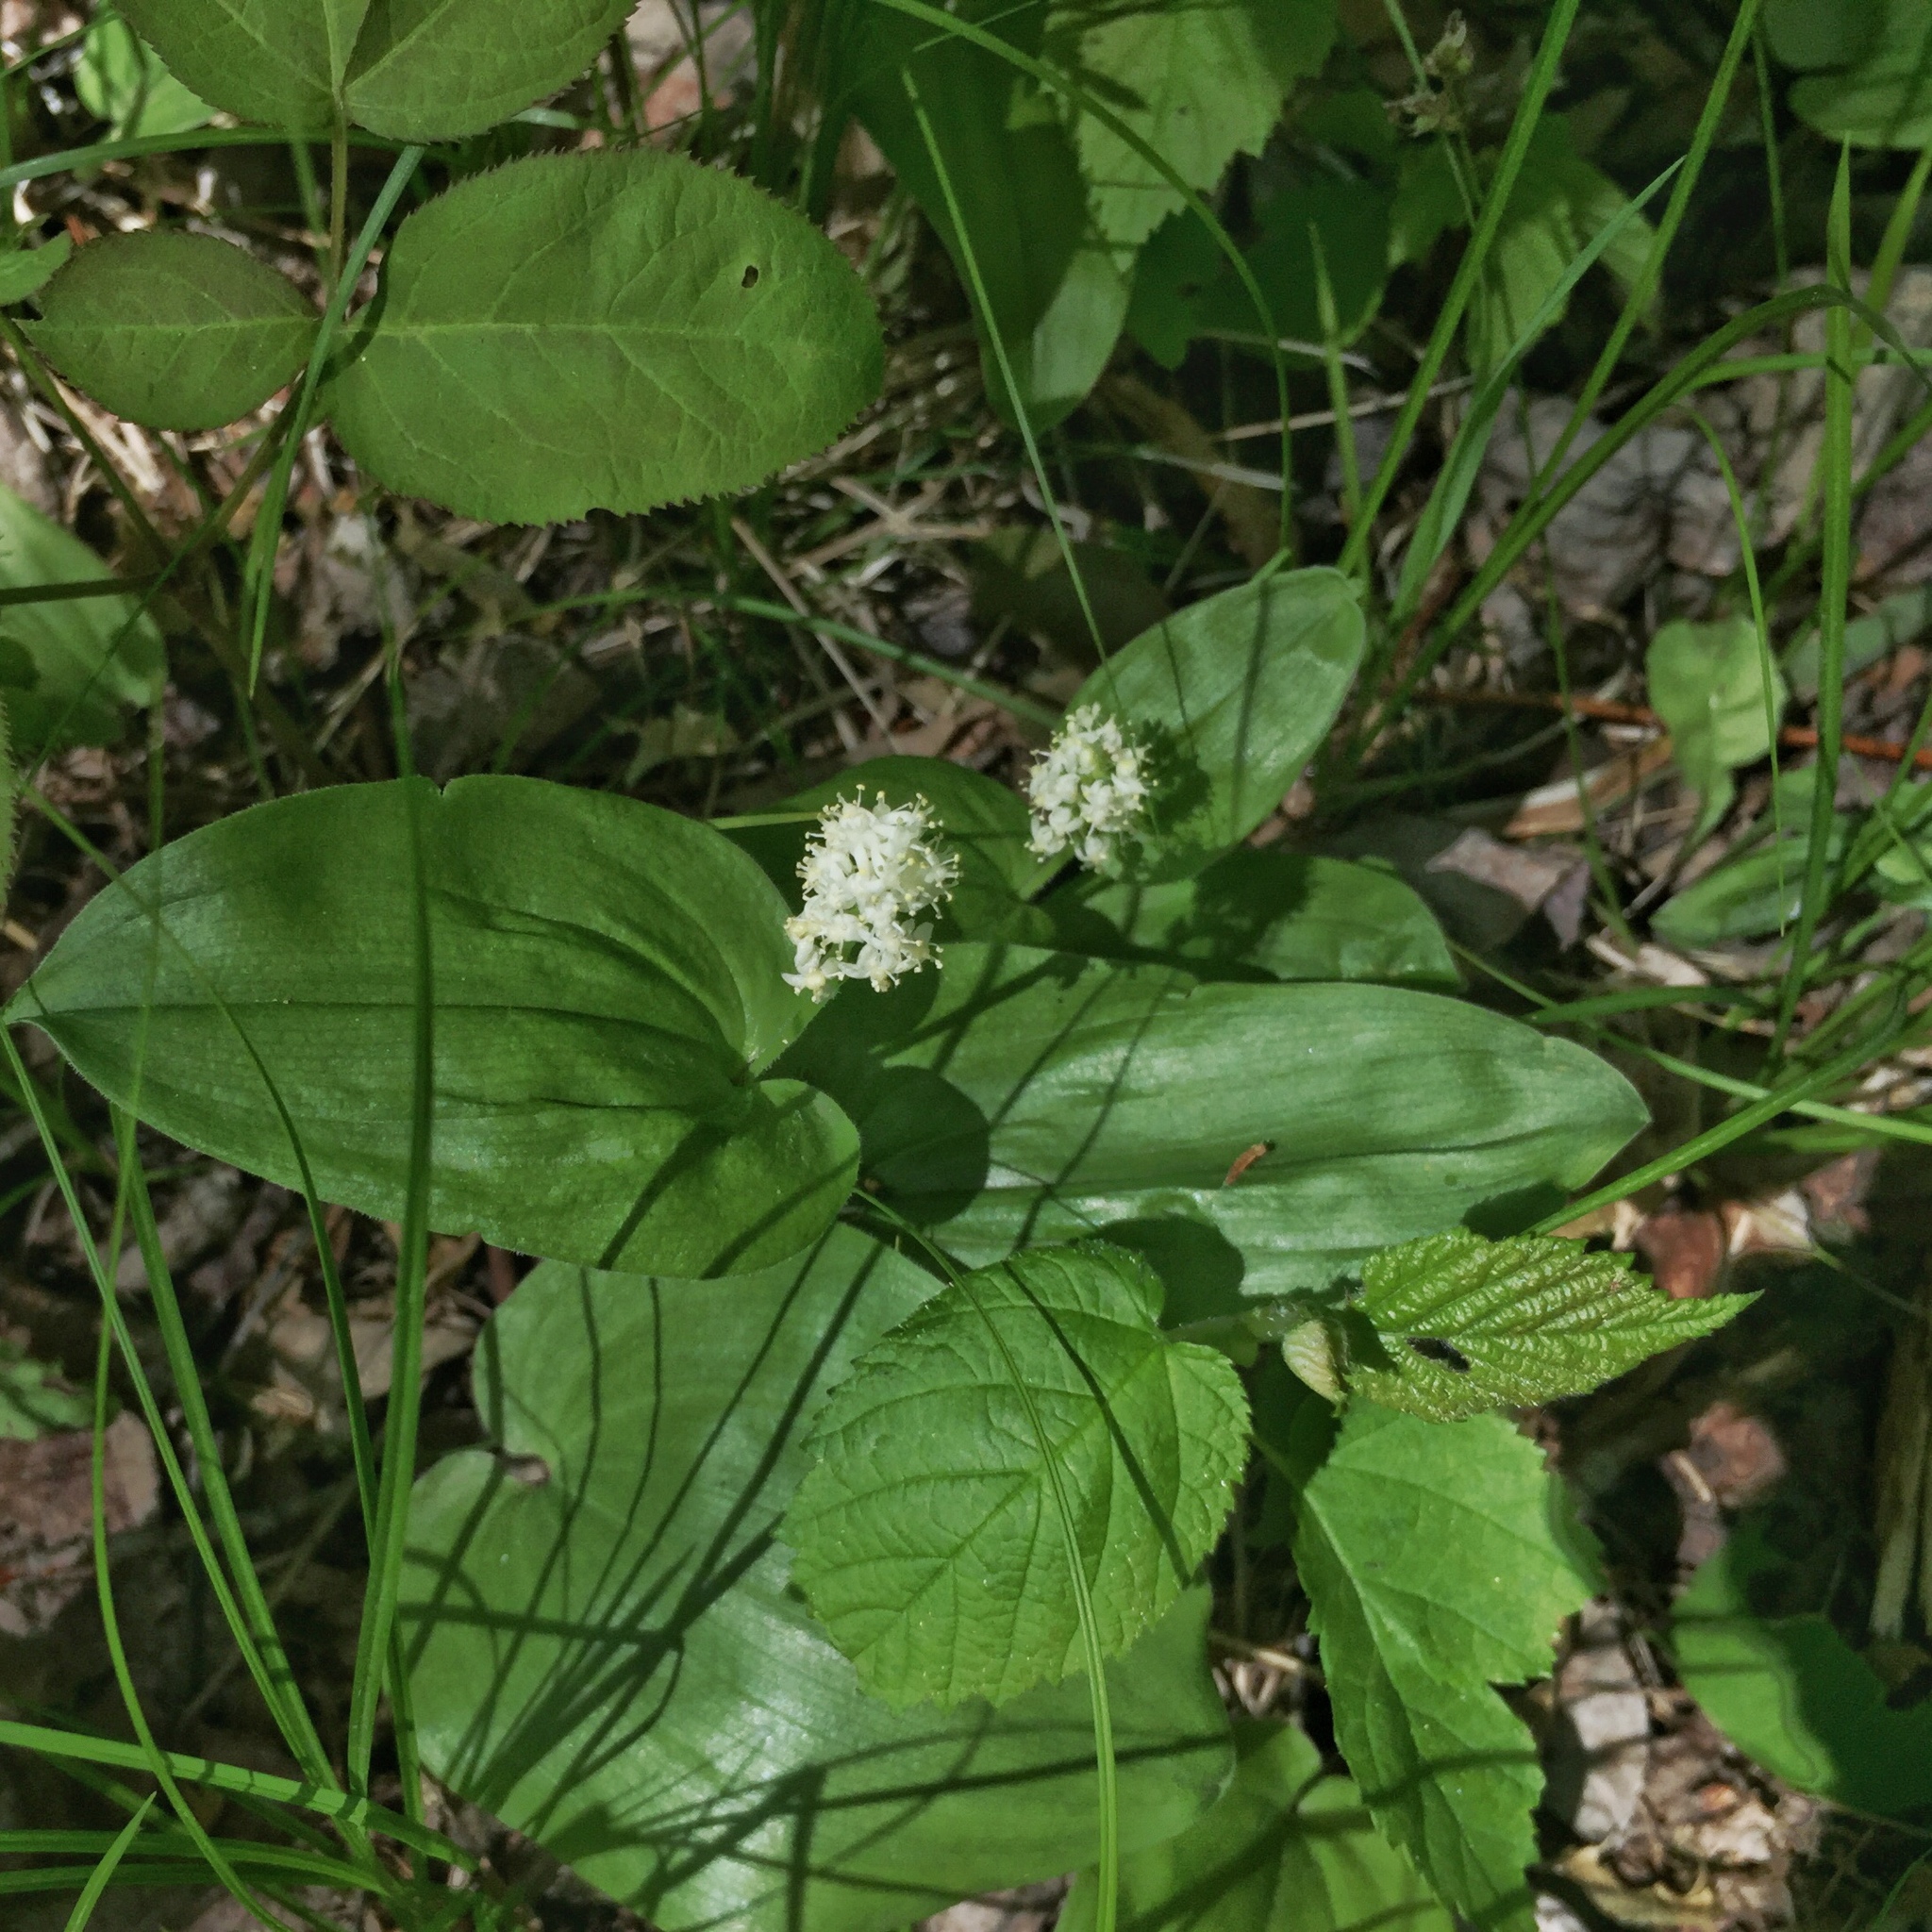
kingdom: Plantae
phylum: Tracheophyta
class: Liliopsida
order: Asparagales
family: Asparagaceae
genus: Maianthemum
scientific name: Maianthemum canadense
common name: False lily-of-the-valley
